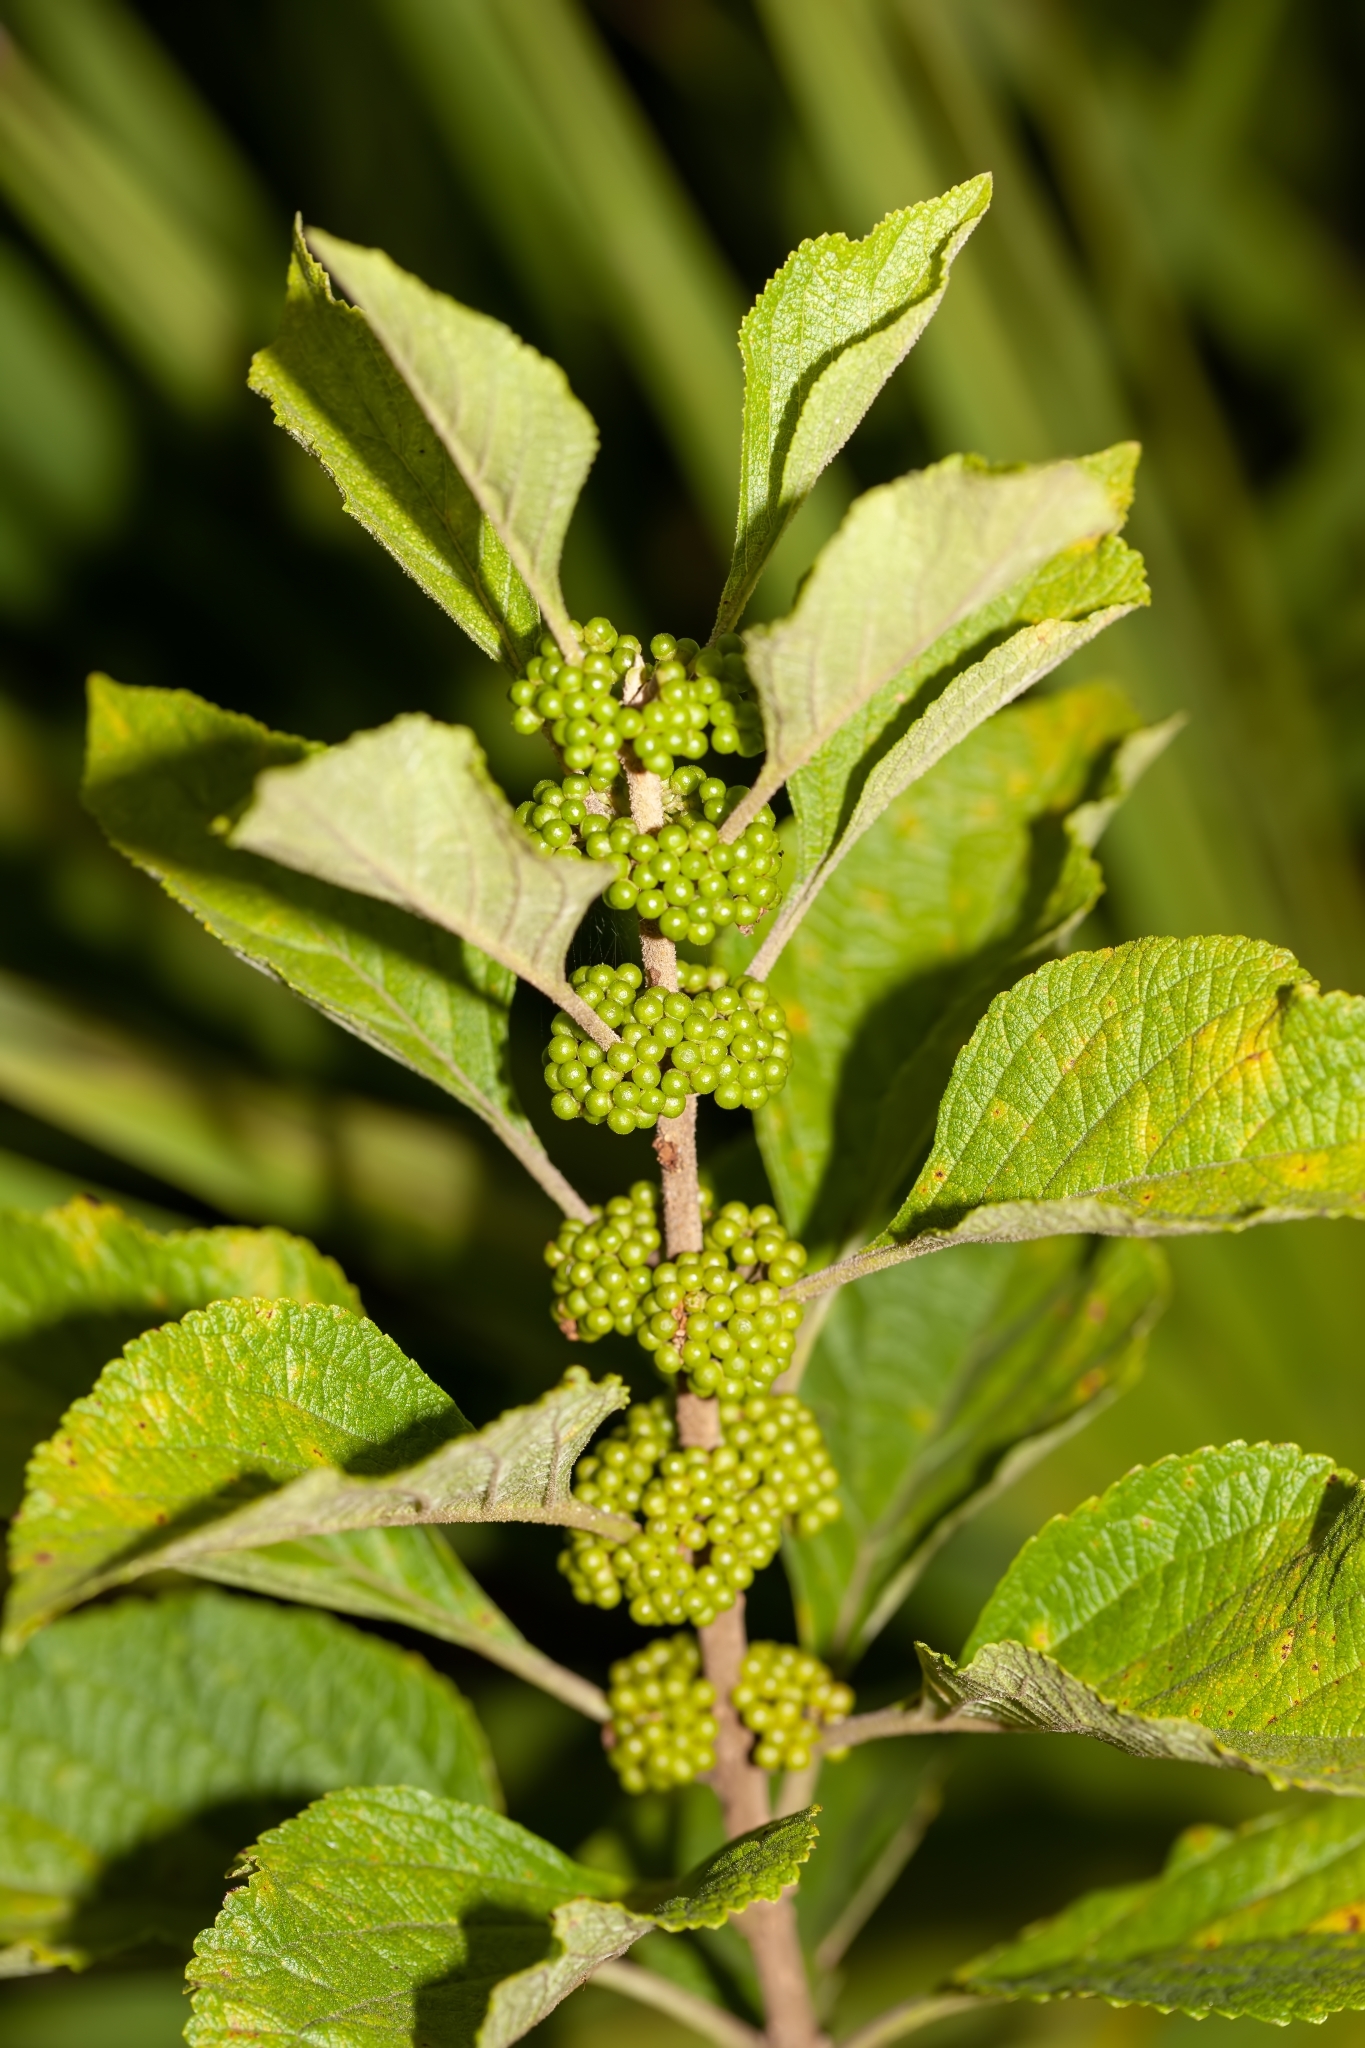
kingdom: Plantae
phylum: Tracheophyta
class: Magnoliopsida
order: Lamiales
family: Lamiaceae
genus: Callicarpa
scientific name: Callicarpa americana
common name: American beautyberry
